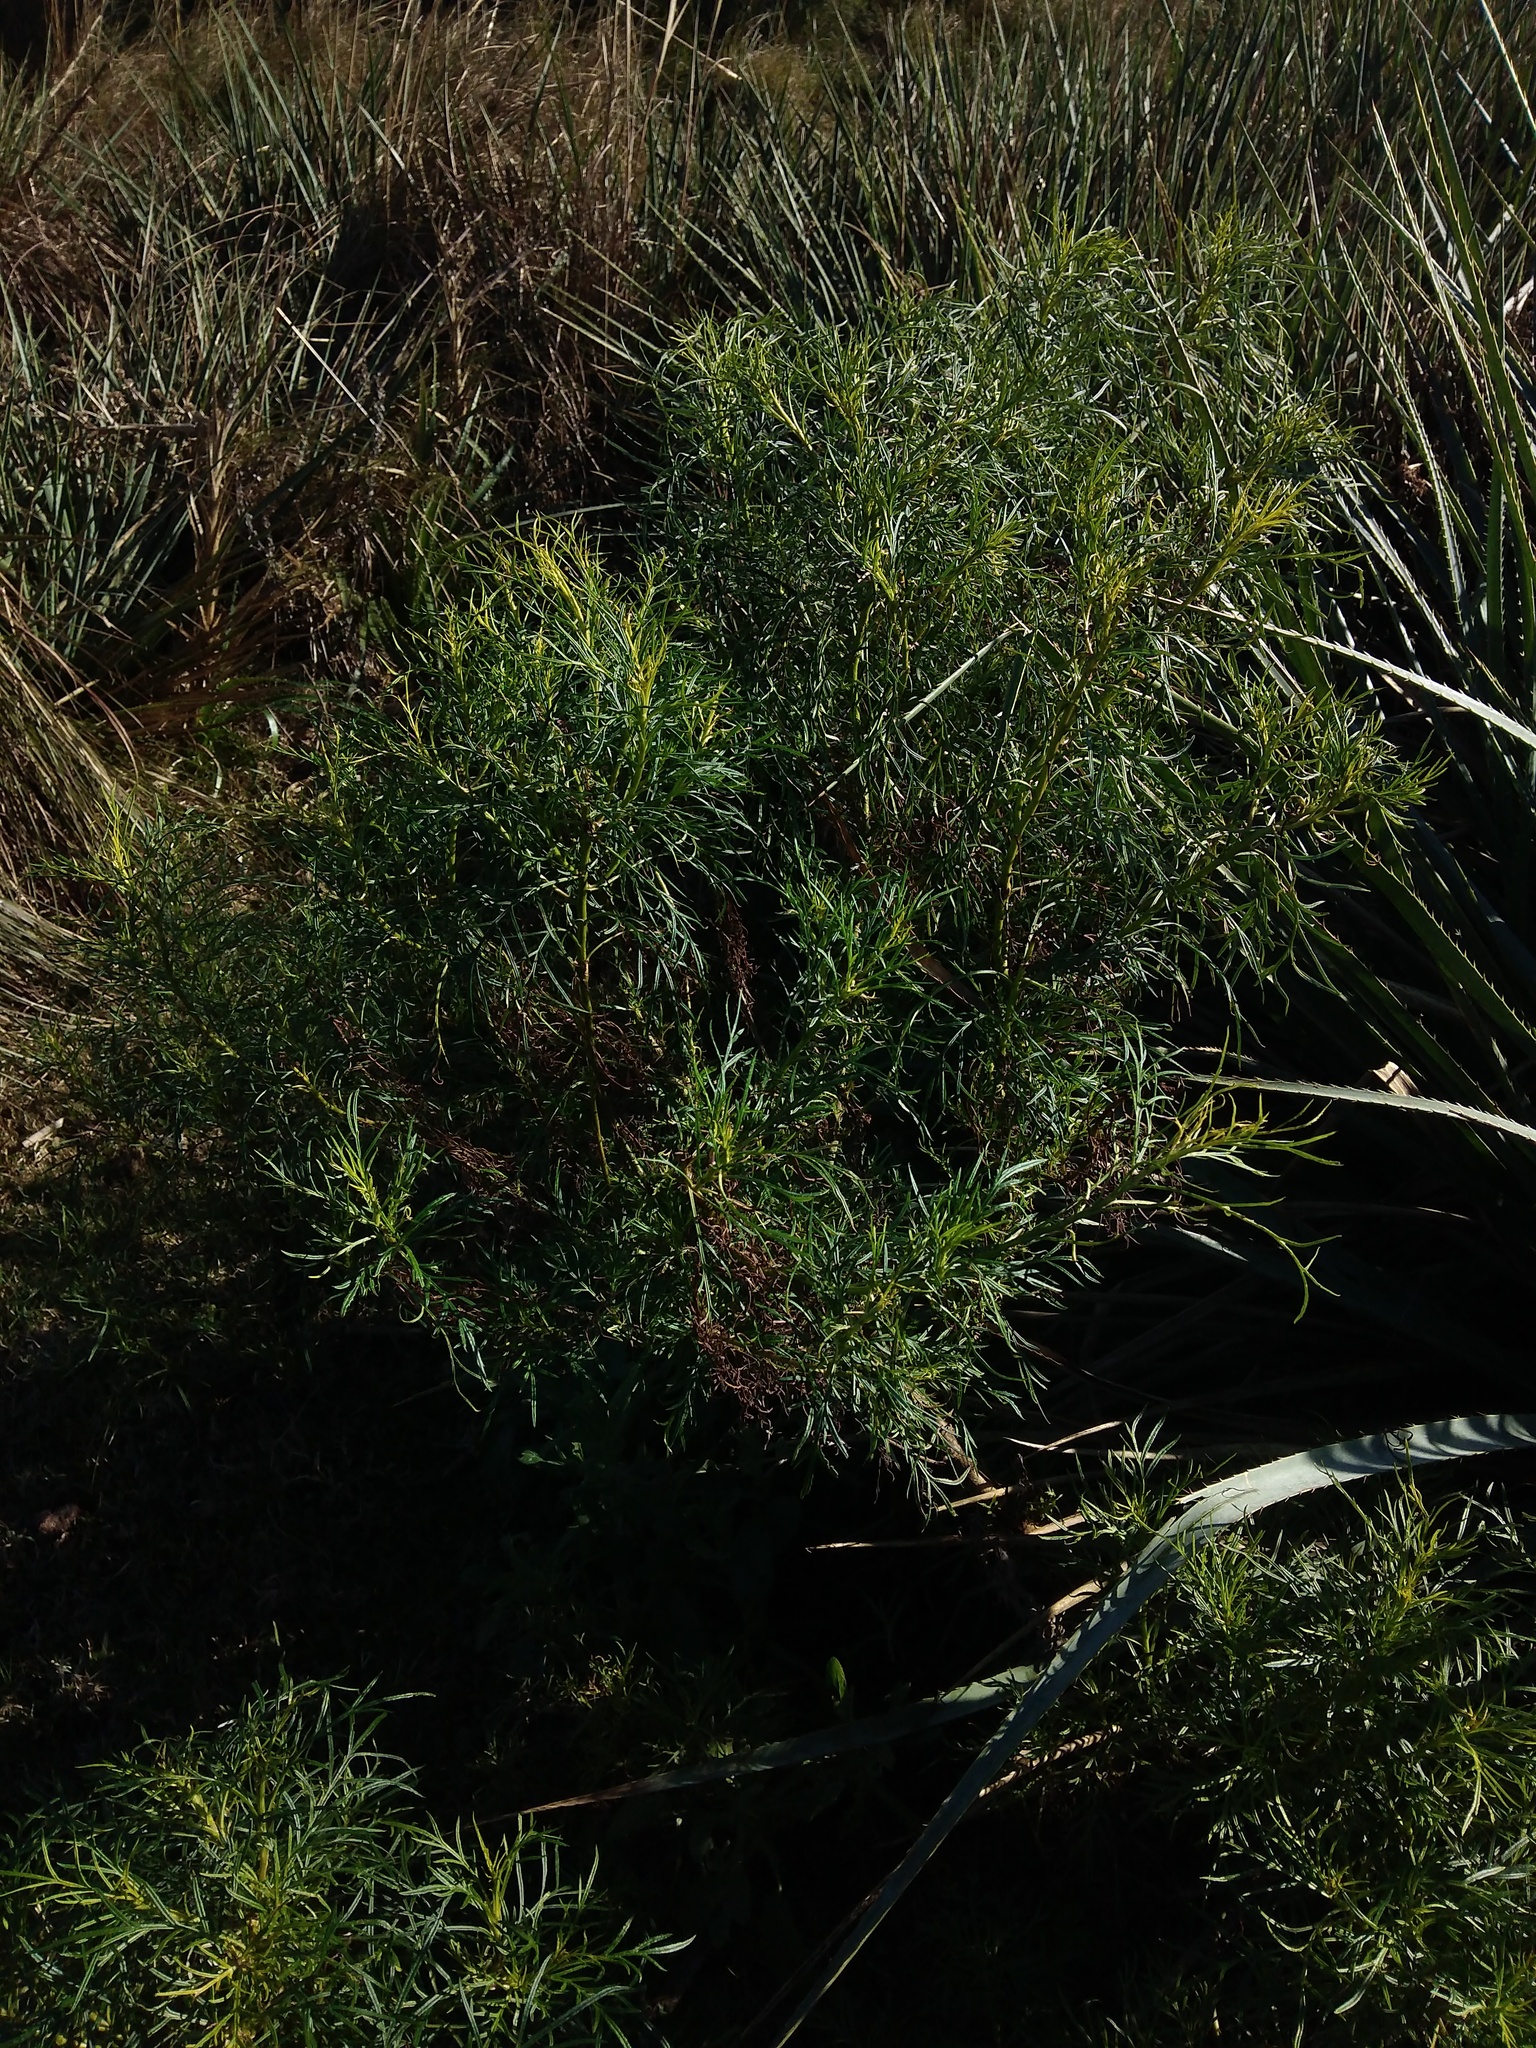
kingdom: Plantae
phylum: Tracheophyta
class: Magnoliopsida
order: Asterales
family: Asteraceae
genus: Senecio
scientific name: Senecio brasiliensis
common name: Hemp-leaf ragwort
